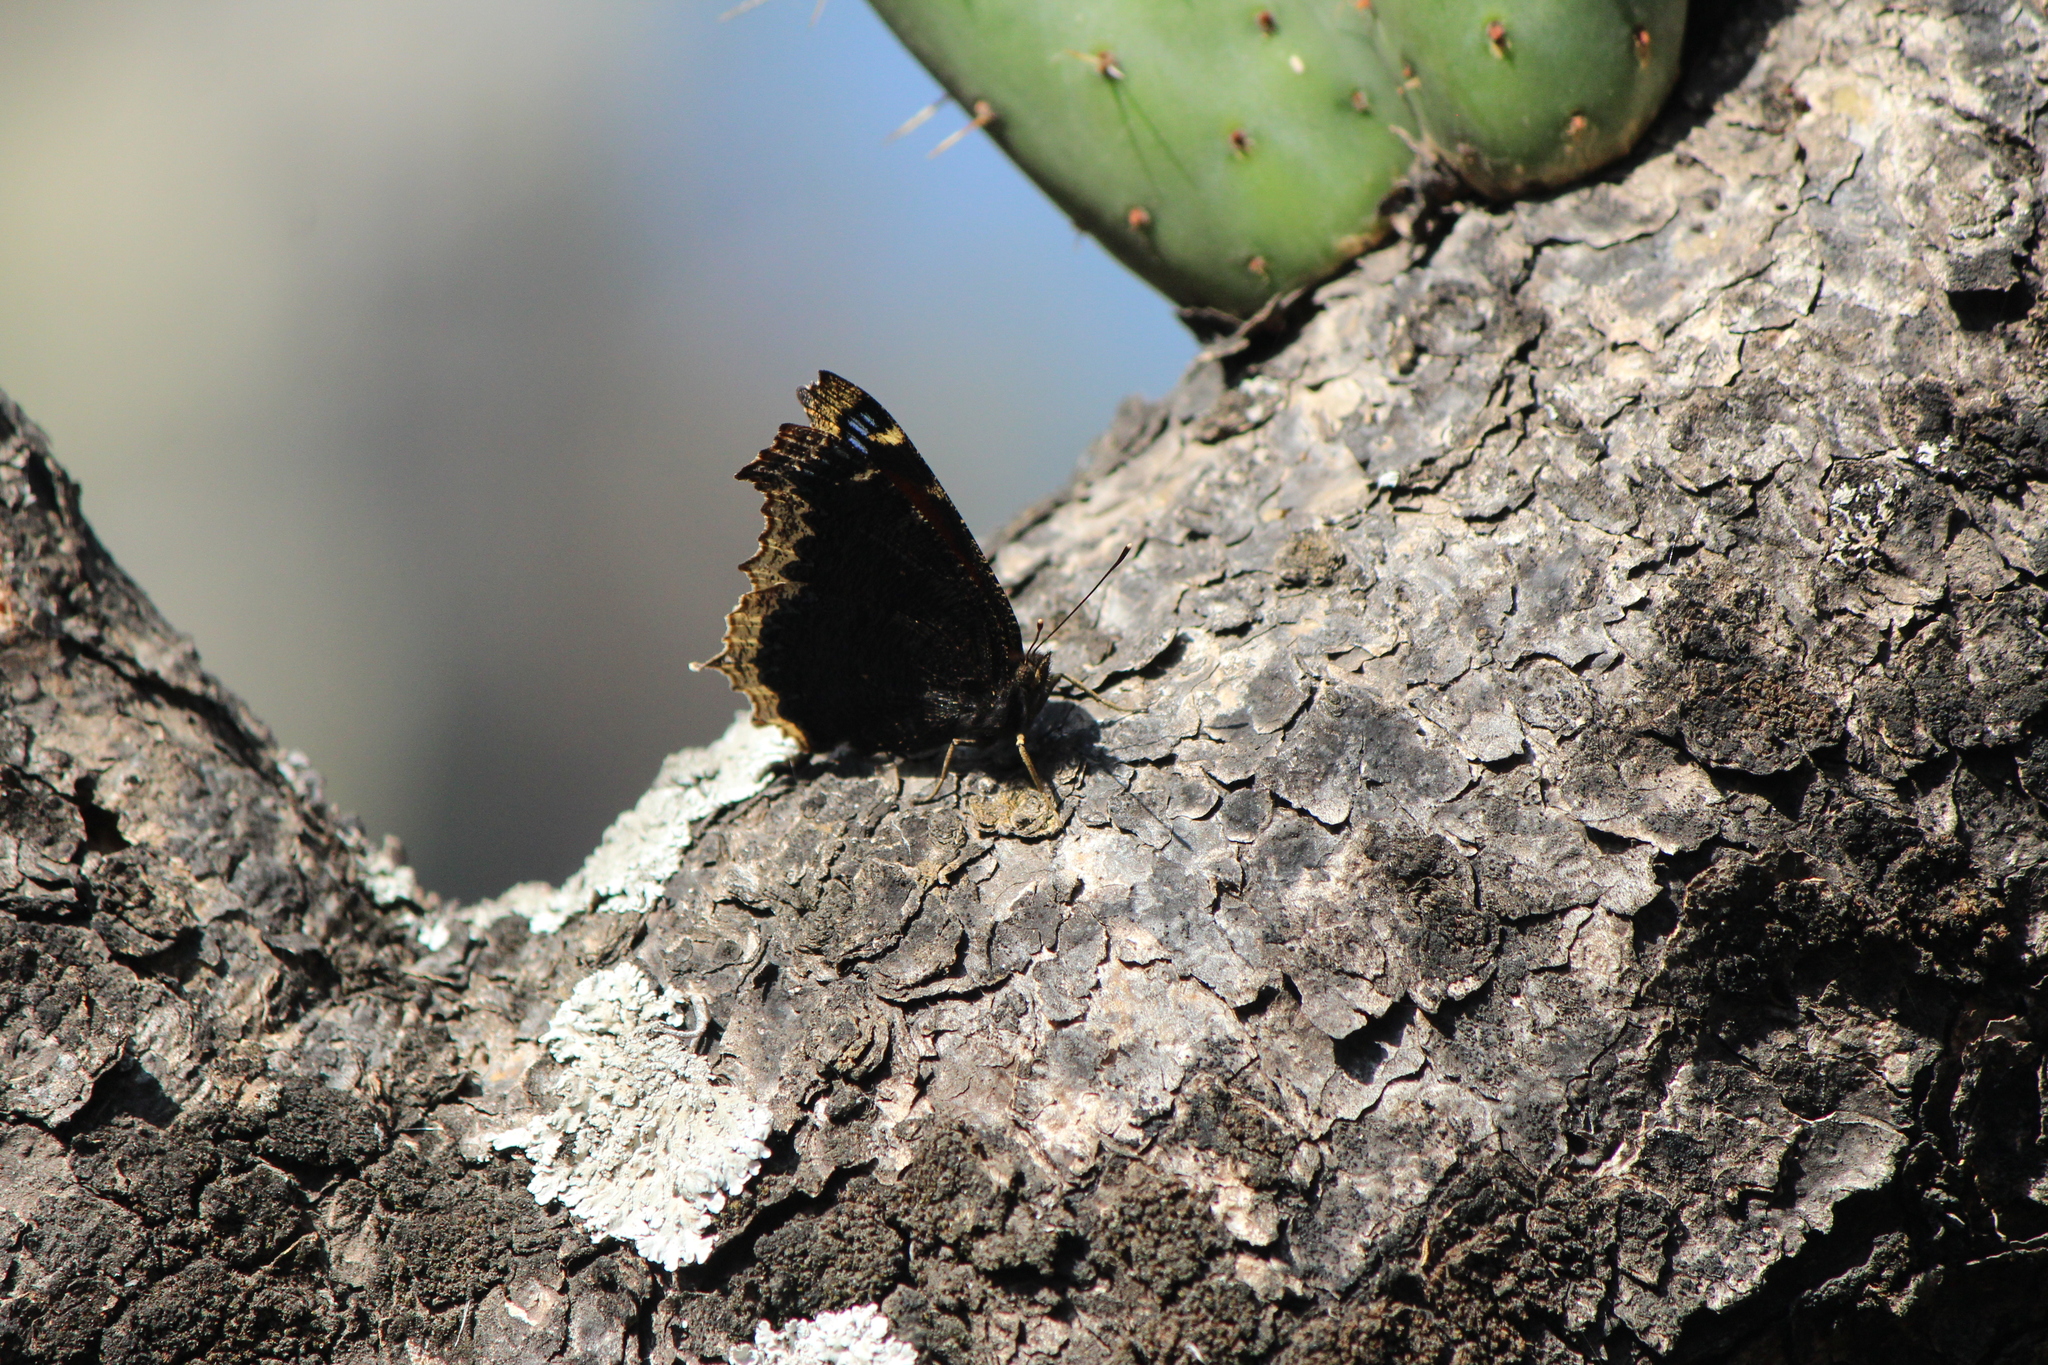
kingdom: Animalia
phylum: Arthropoda
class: Insecta
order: Lepidoptera
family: Nymphalidae
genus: Nymphalis
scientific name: Nymphalis antiopa
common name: Camberwell beauty
